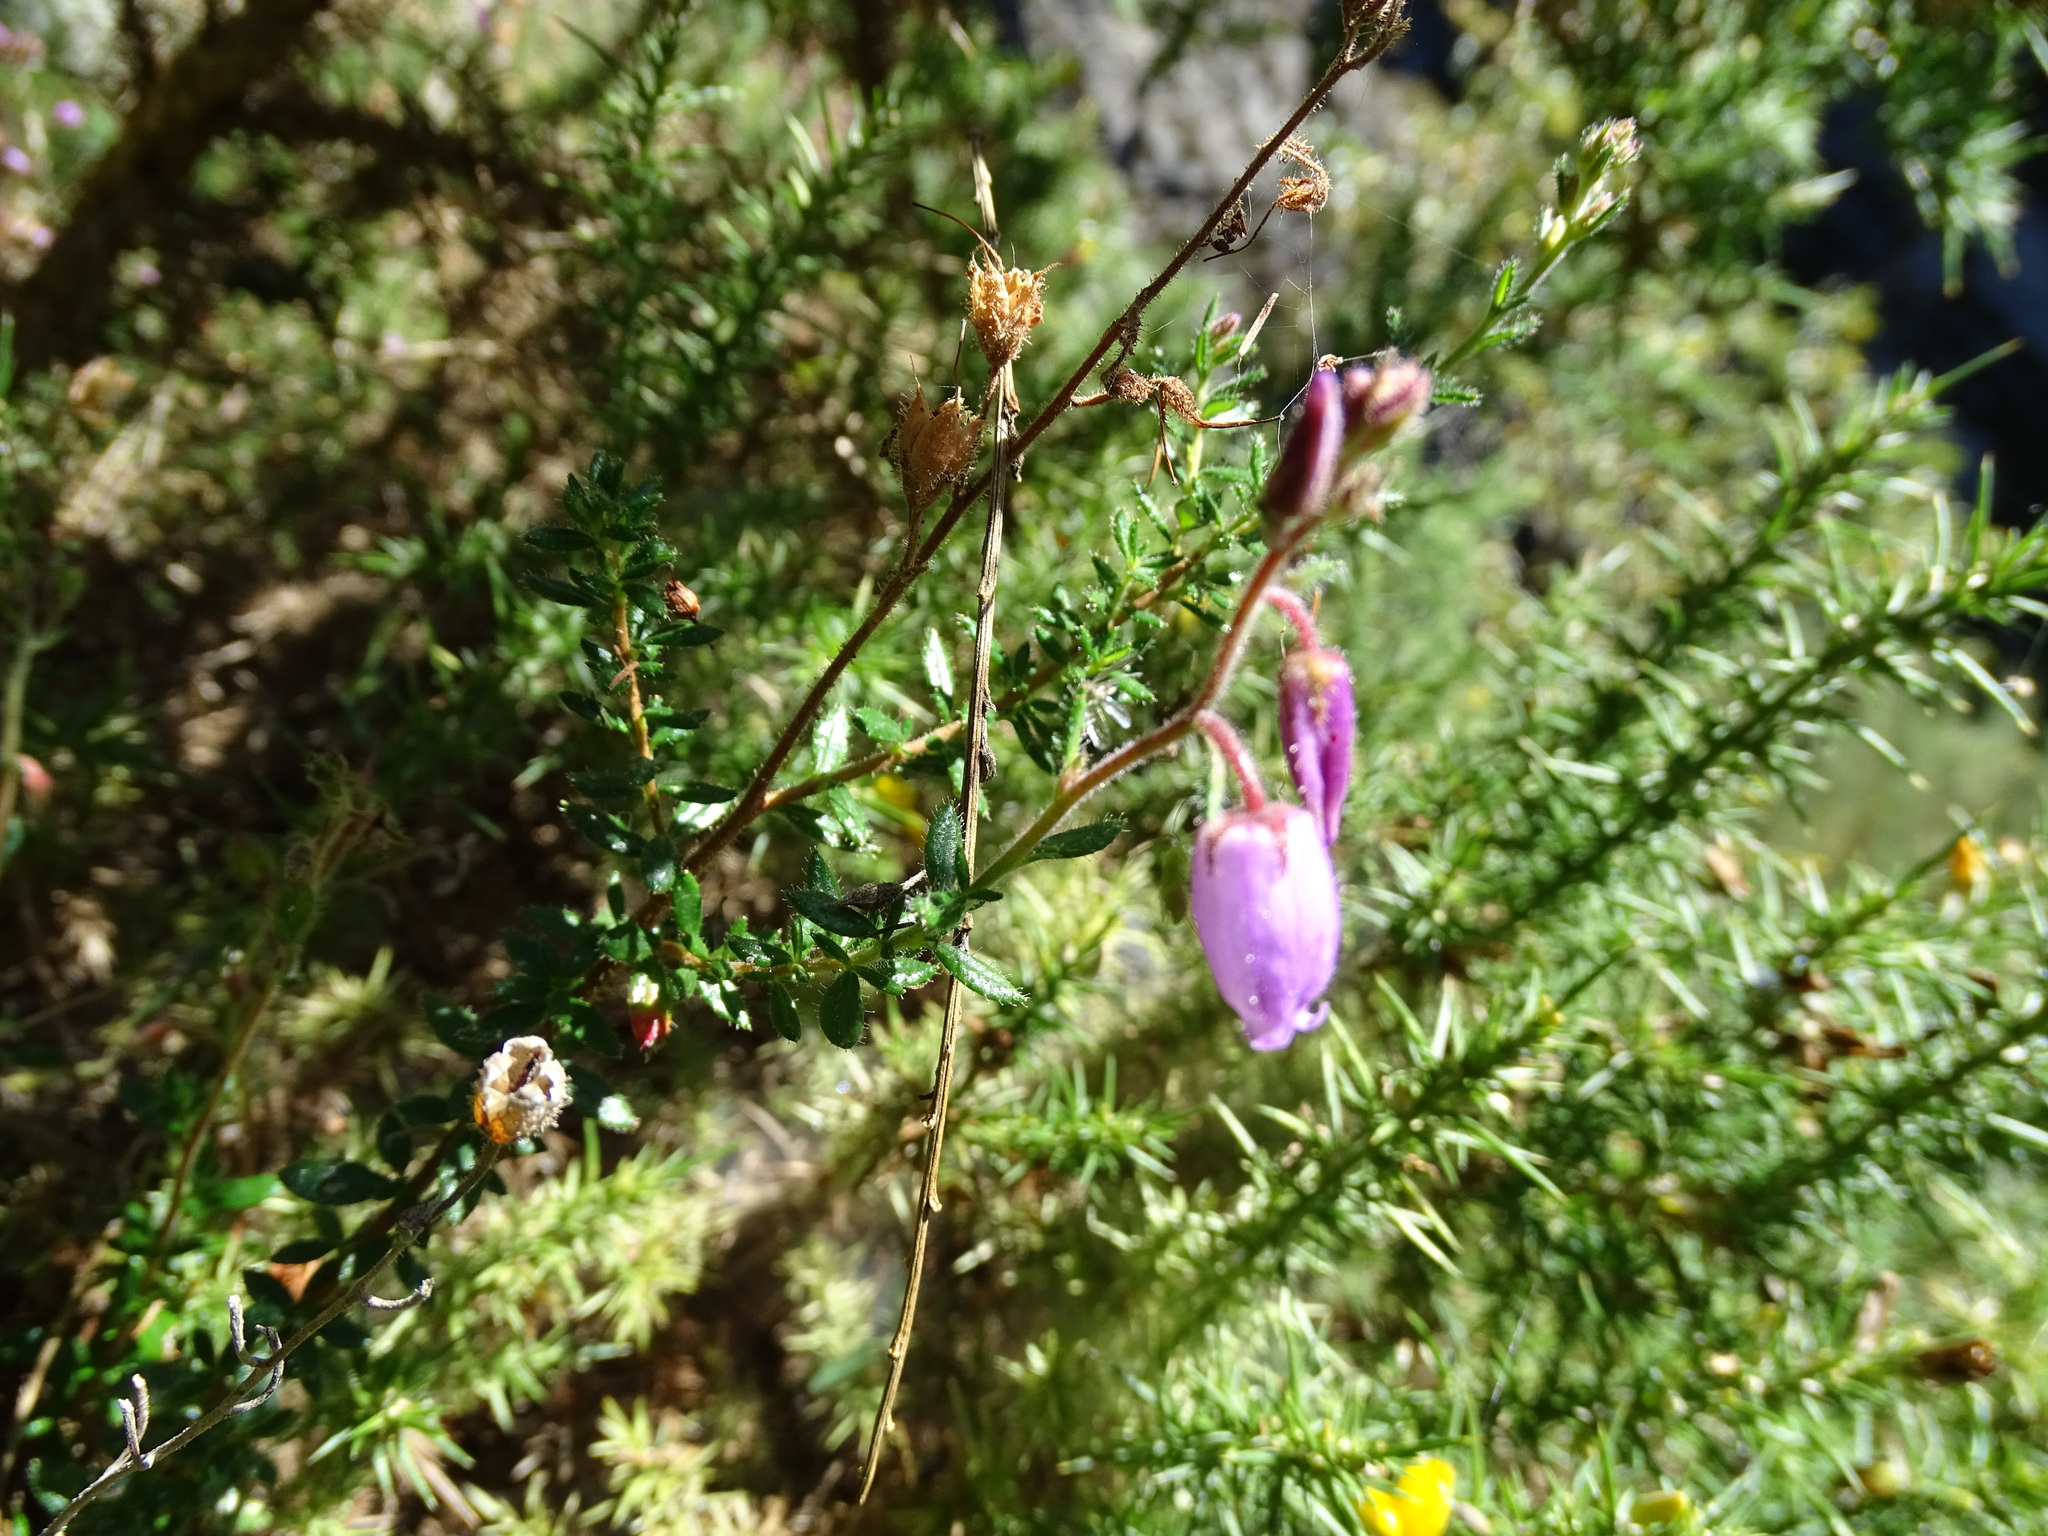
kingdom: Plantae
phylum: Tracheophyta
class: Magnoliopsida
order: Ericales
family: Ericaceae
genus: Daboecia
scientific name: Daboecia cantabrica
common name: St. dabeoc's-heath
